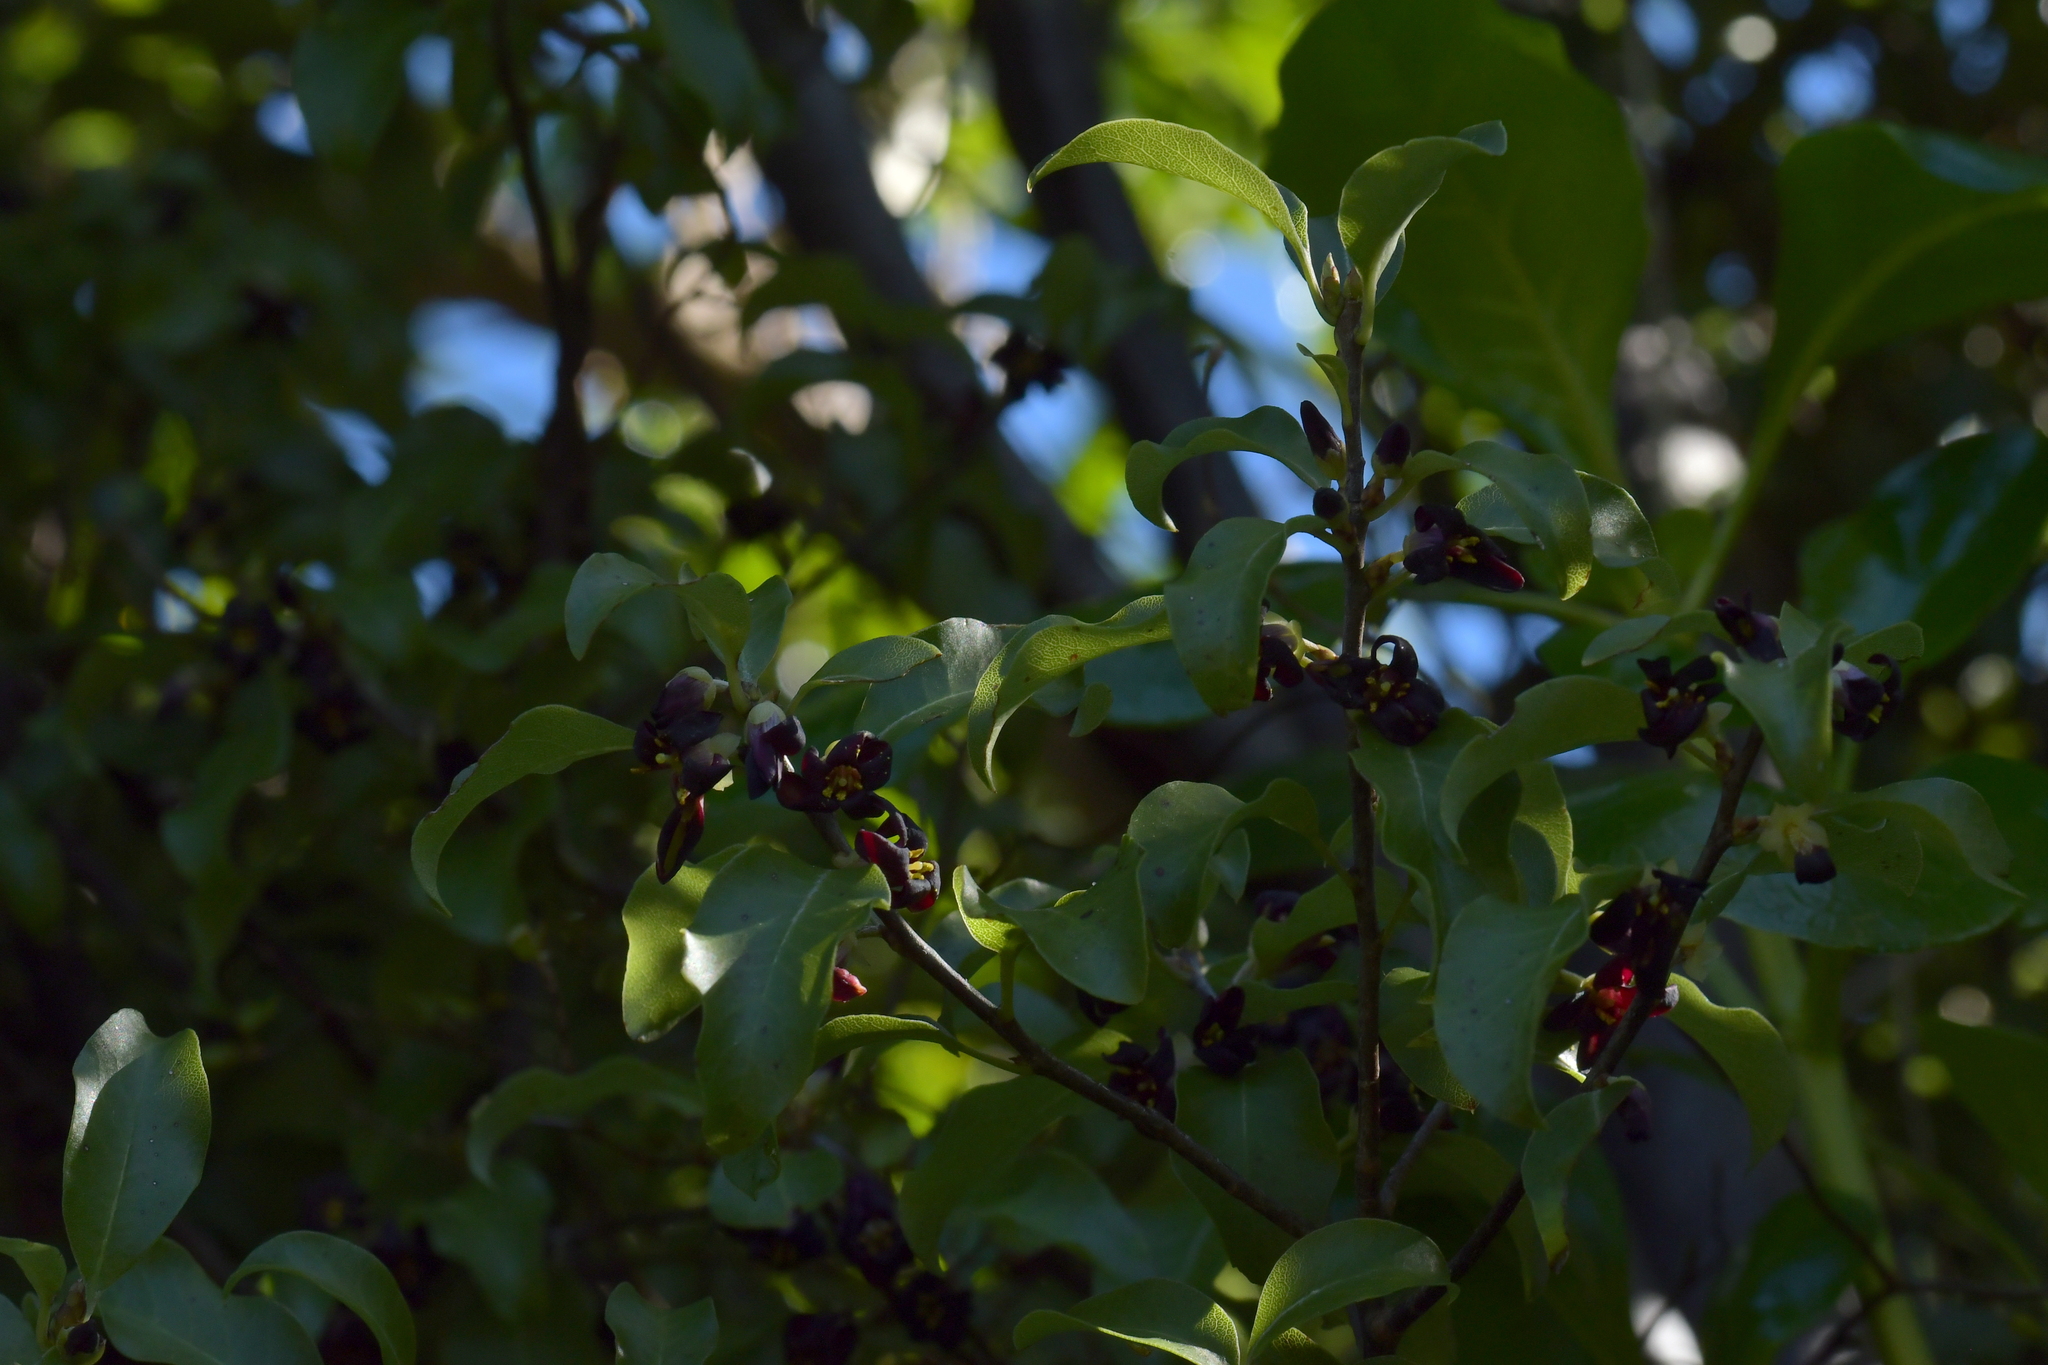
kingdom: Plantae
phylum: Tracheophyta
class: Magnoliopsida
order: Apiales
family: Pittosporaceae
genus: Pittosporum
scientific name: Pittosporum tenuifolium
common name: Kohuhu
